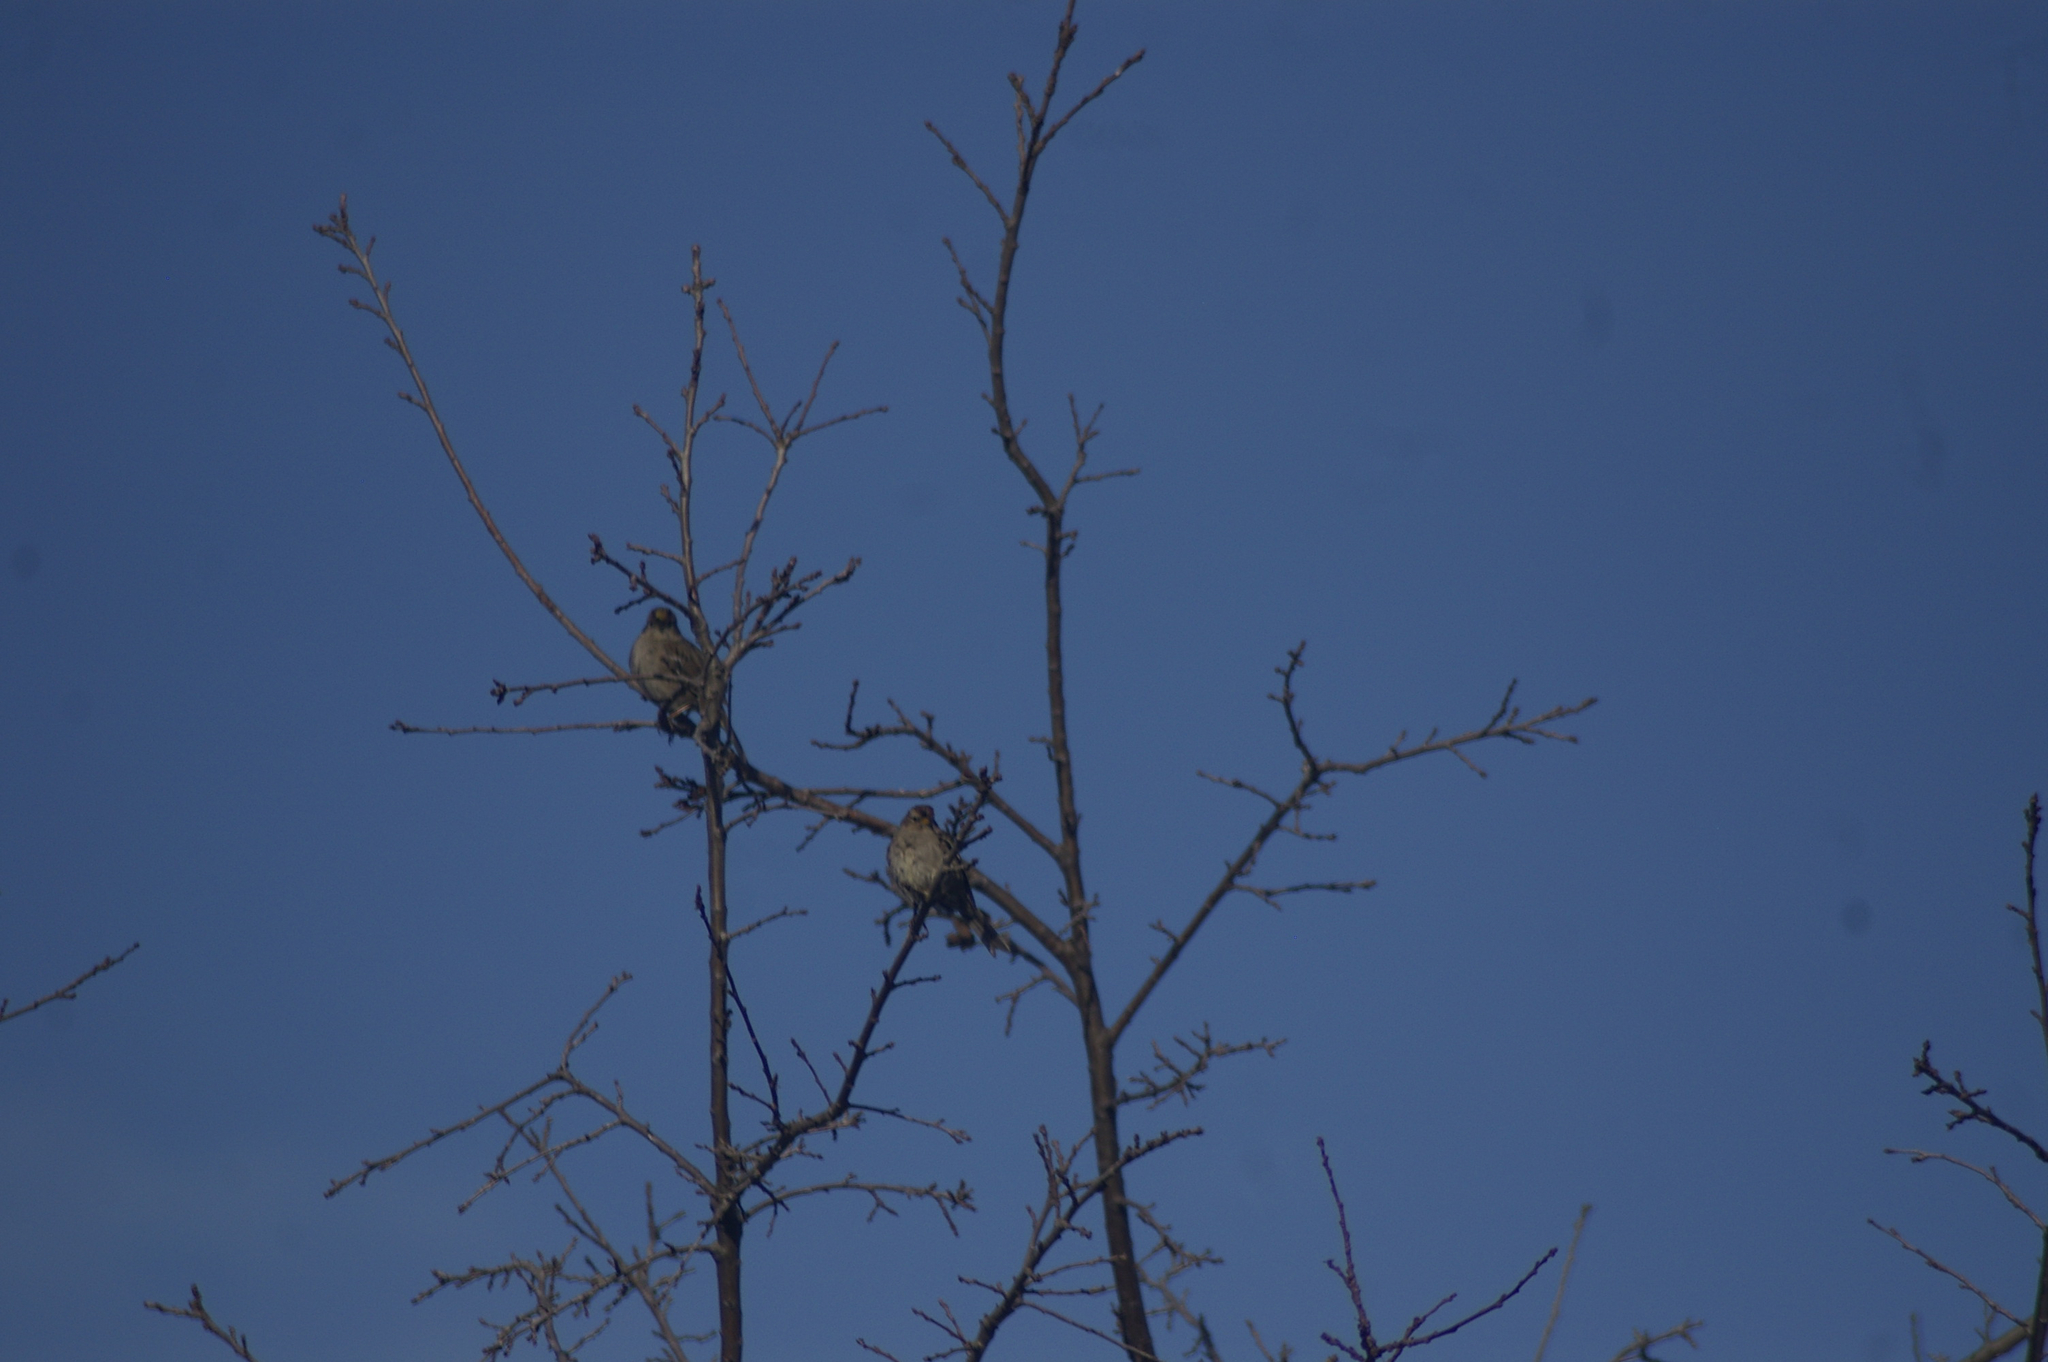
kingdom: Animalia
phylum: Chordata
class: Aves
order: Passeriformes
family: Passerellidae
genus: Zonotrichia
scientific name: Zonotrichia atricapilla
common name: Golden-crowned sparrow
